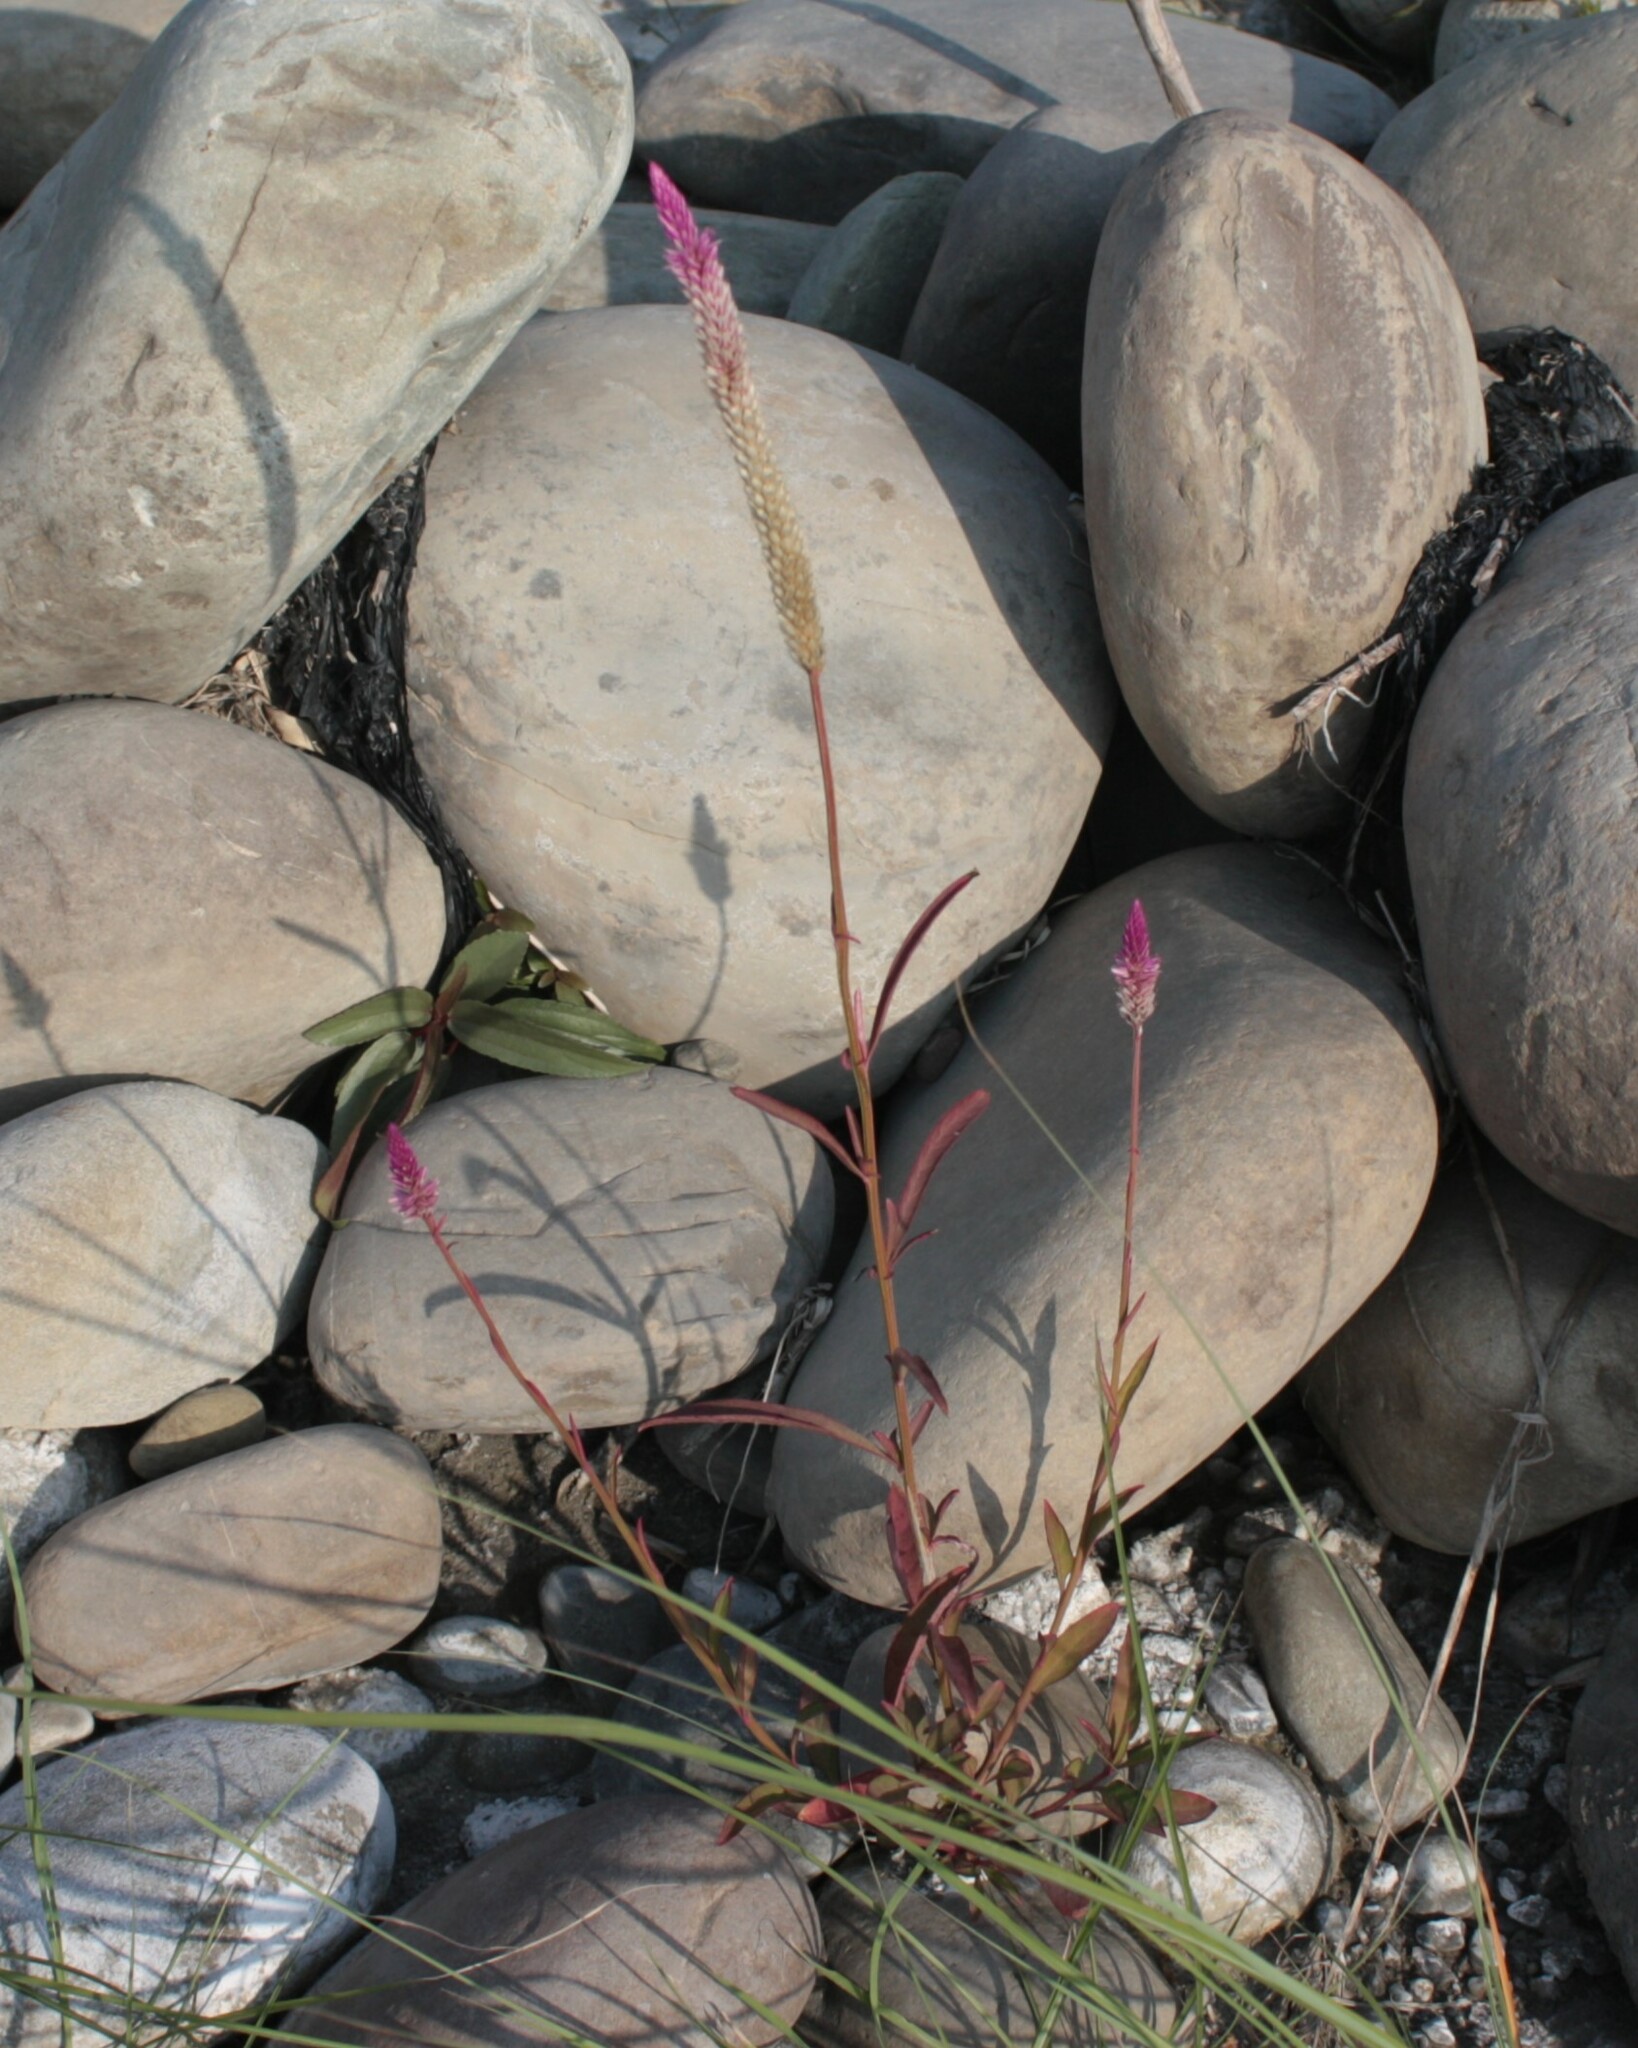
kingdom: Plantae
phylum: Tracheophyta
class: Magnoliopsida
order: Caryophyllales
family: Amaranthaceae
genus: Celosia
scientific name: Celosia argentea
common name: Feather cockscomb
